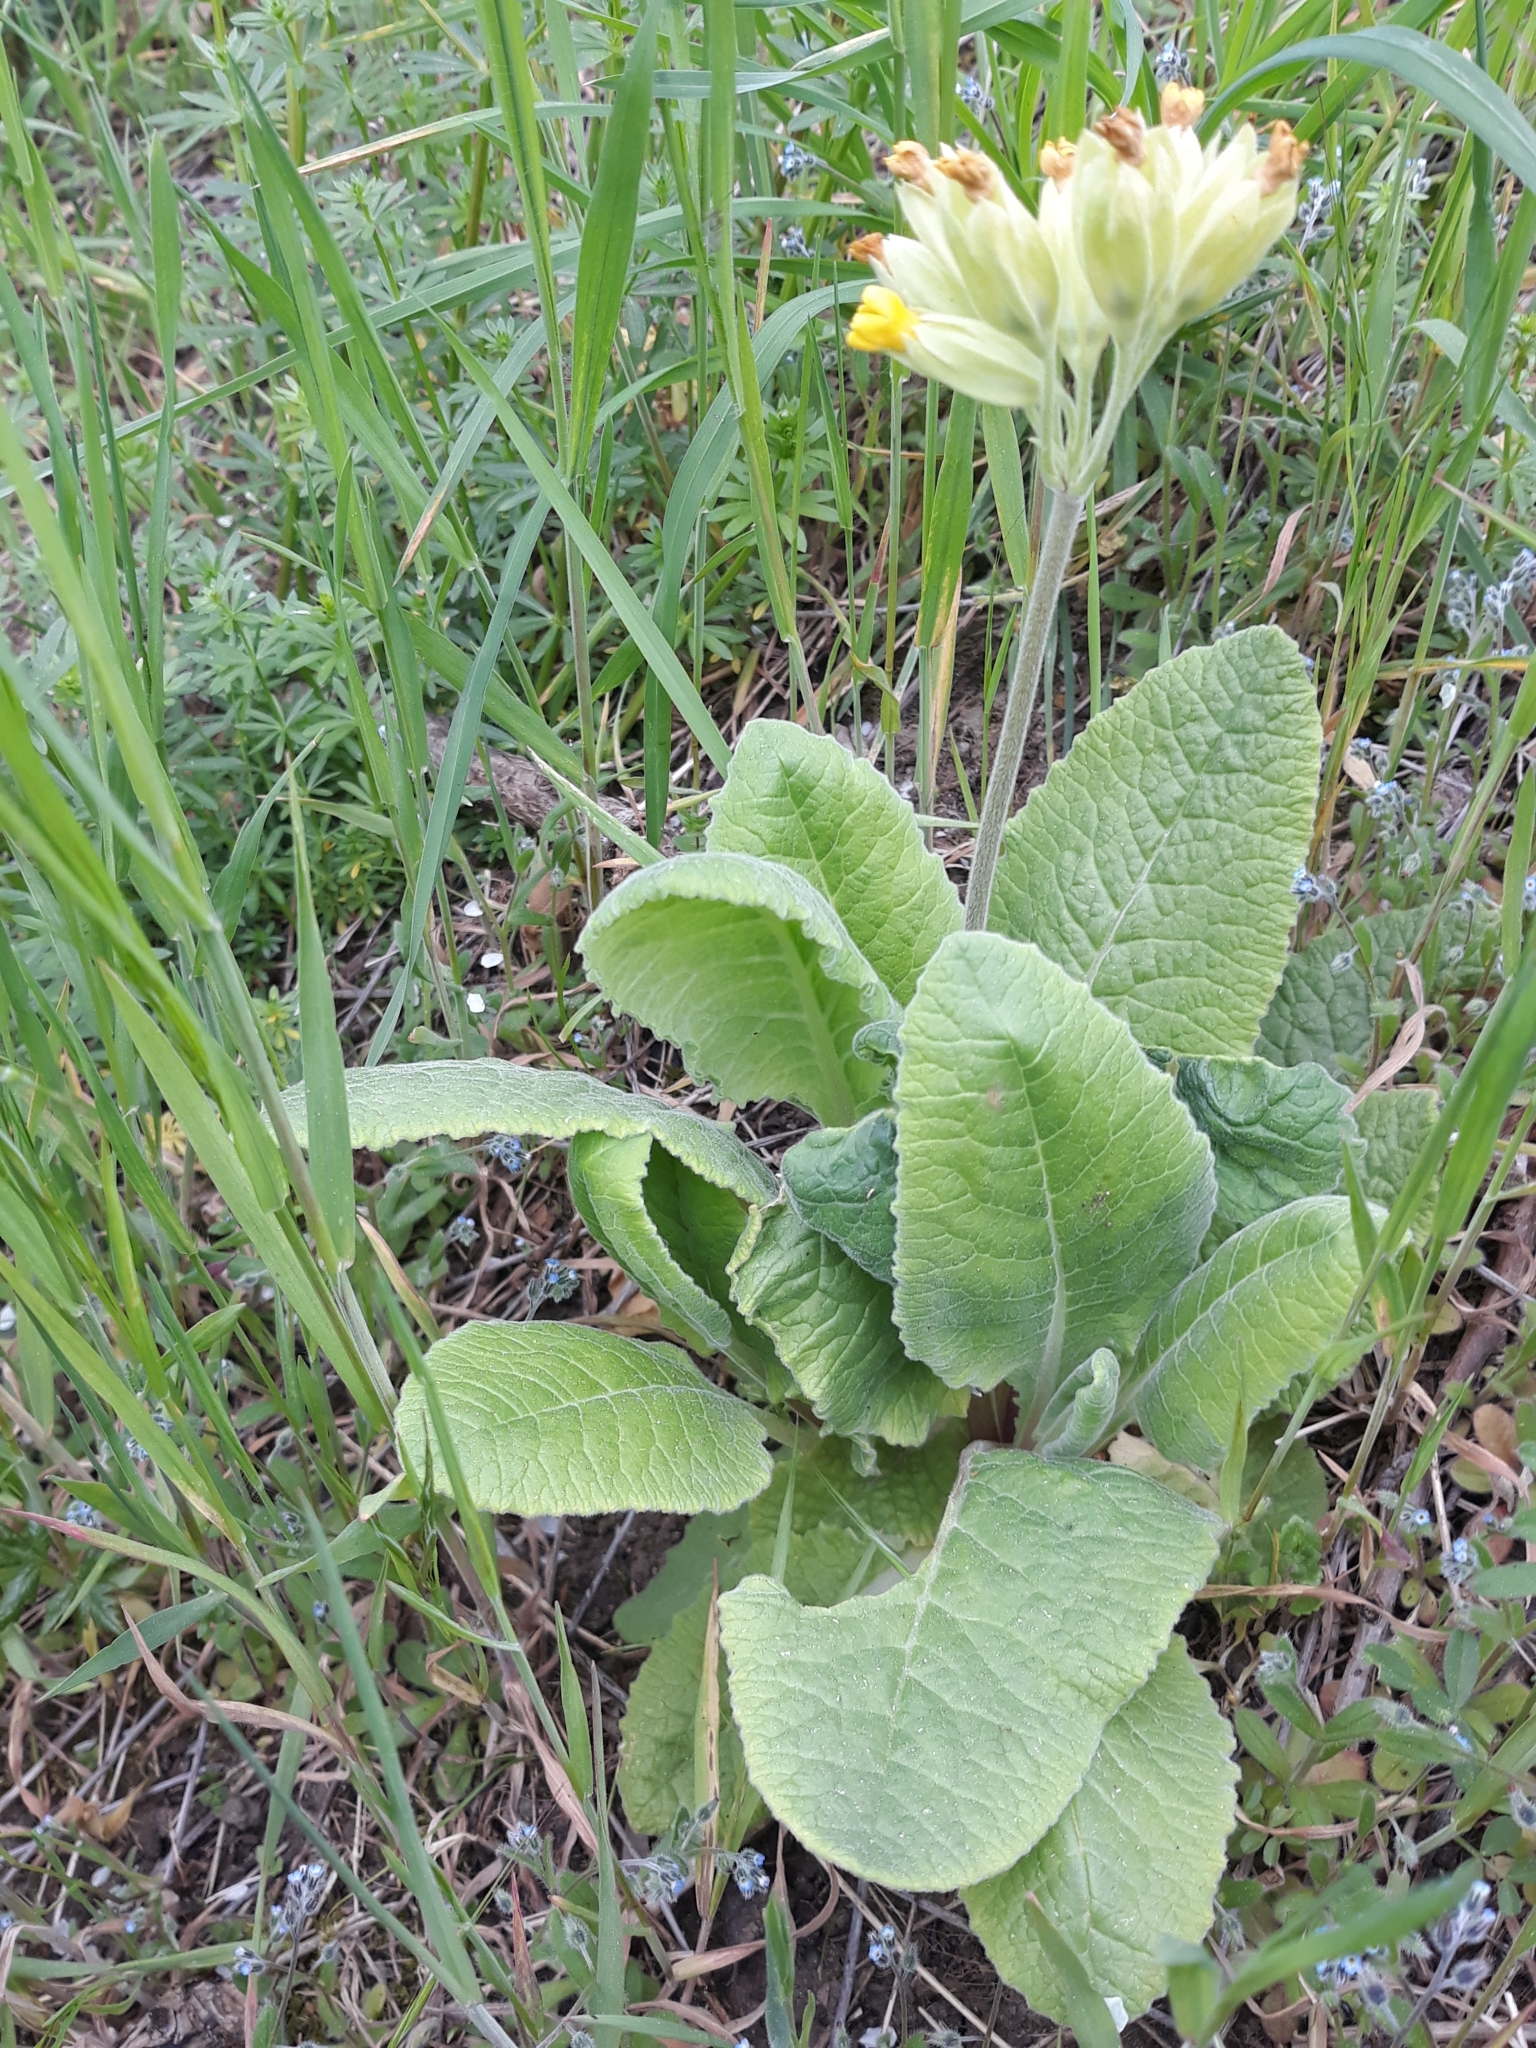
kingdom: Plantae
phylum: Tracheophyta
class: Magnoliopsida
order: Ericales
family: Primulaceae
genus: Primula
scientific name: Primula veris
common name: Cowslip
